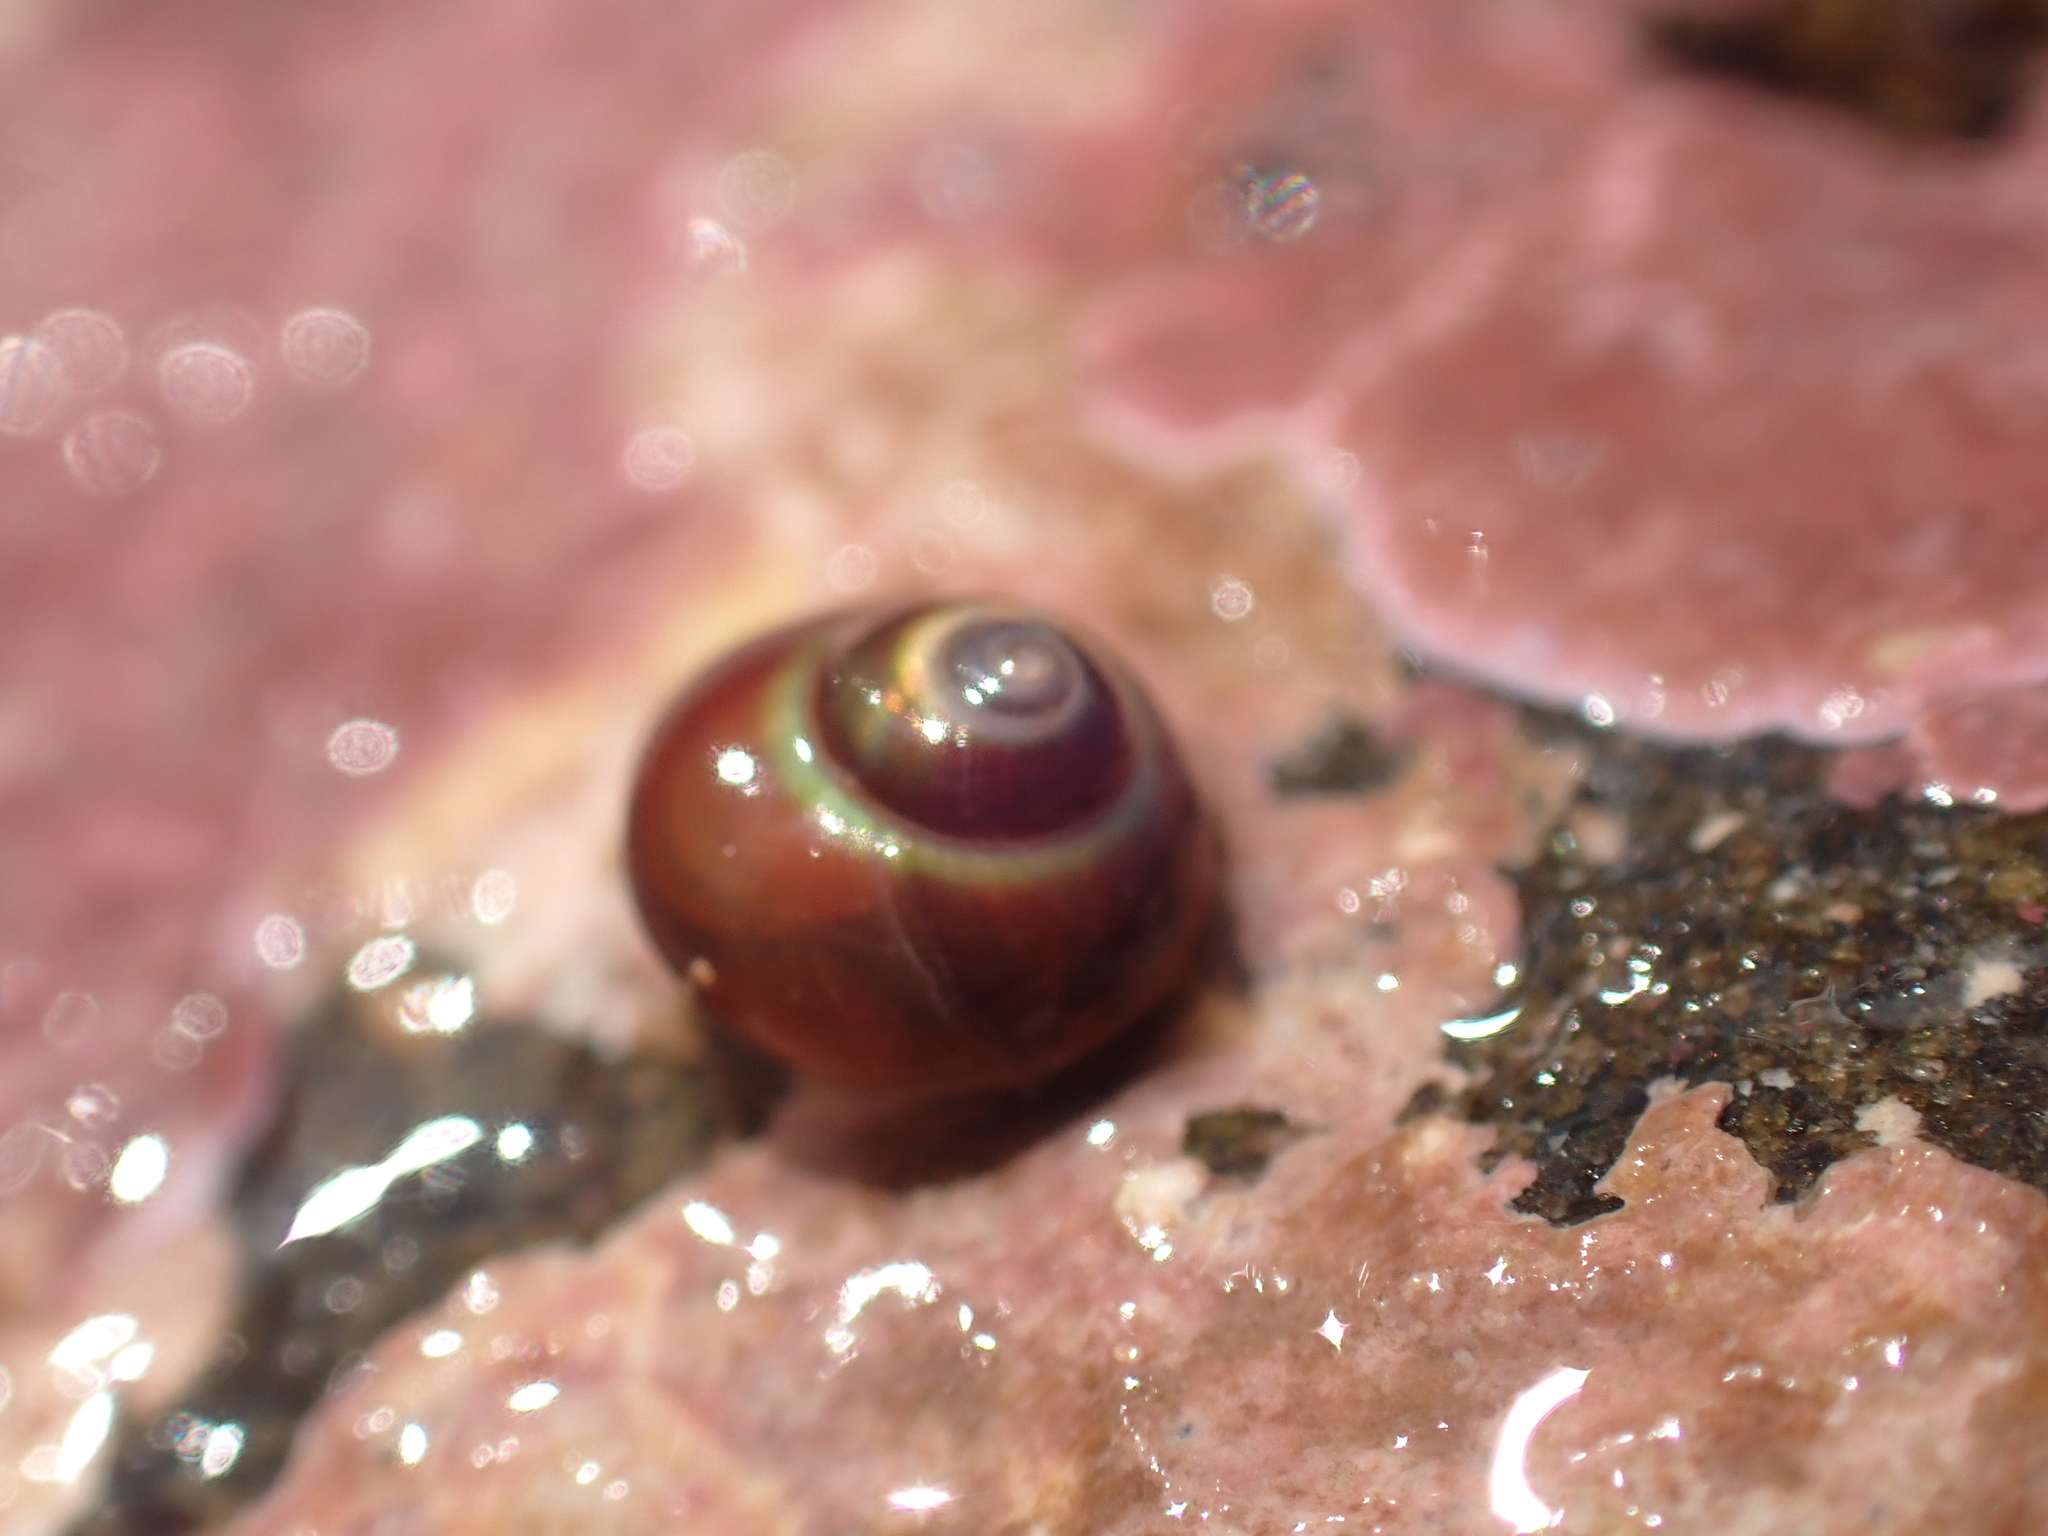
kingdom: Animalia
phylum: Mollusca
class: Gastropoda
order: Trochida
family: Margaritidae
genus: Margarites
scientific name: Margarites helicinus
